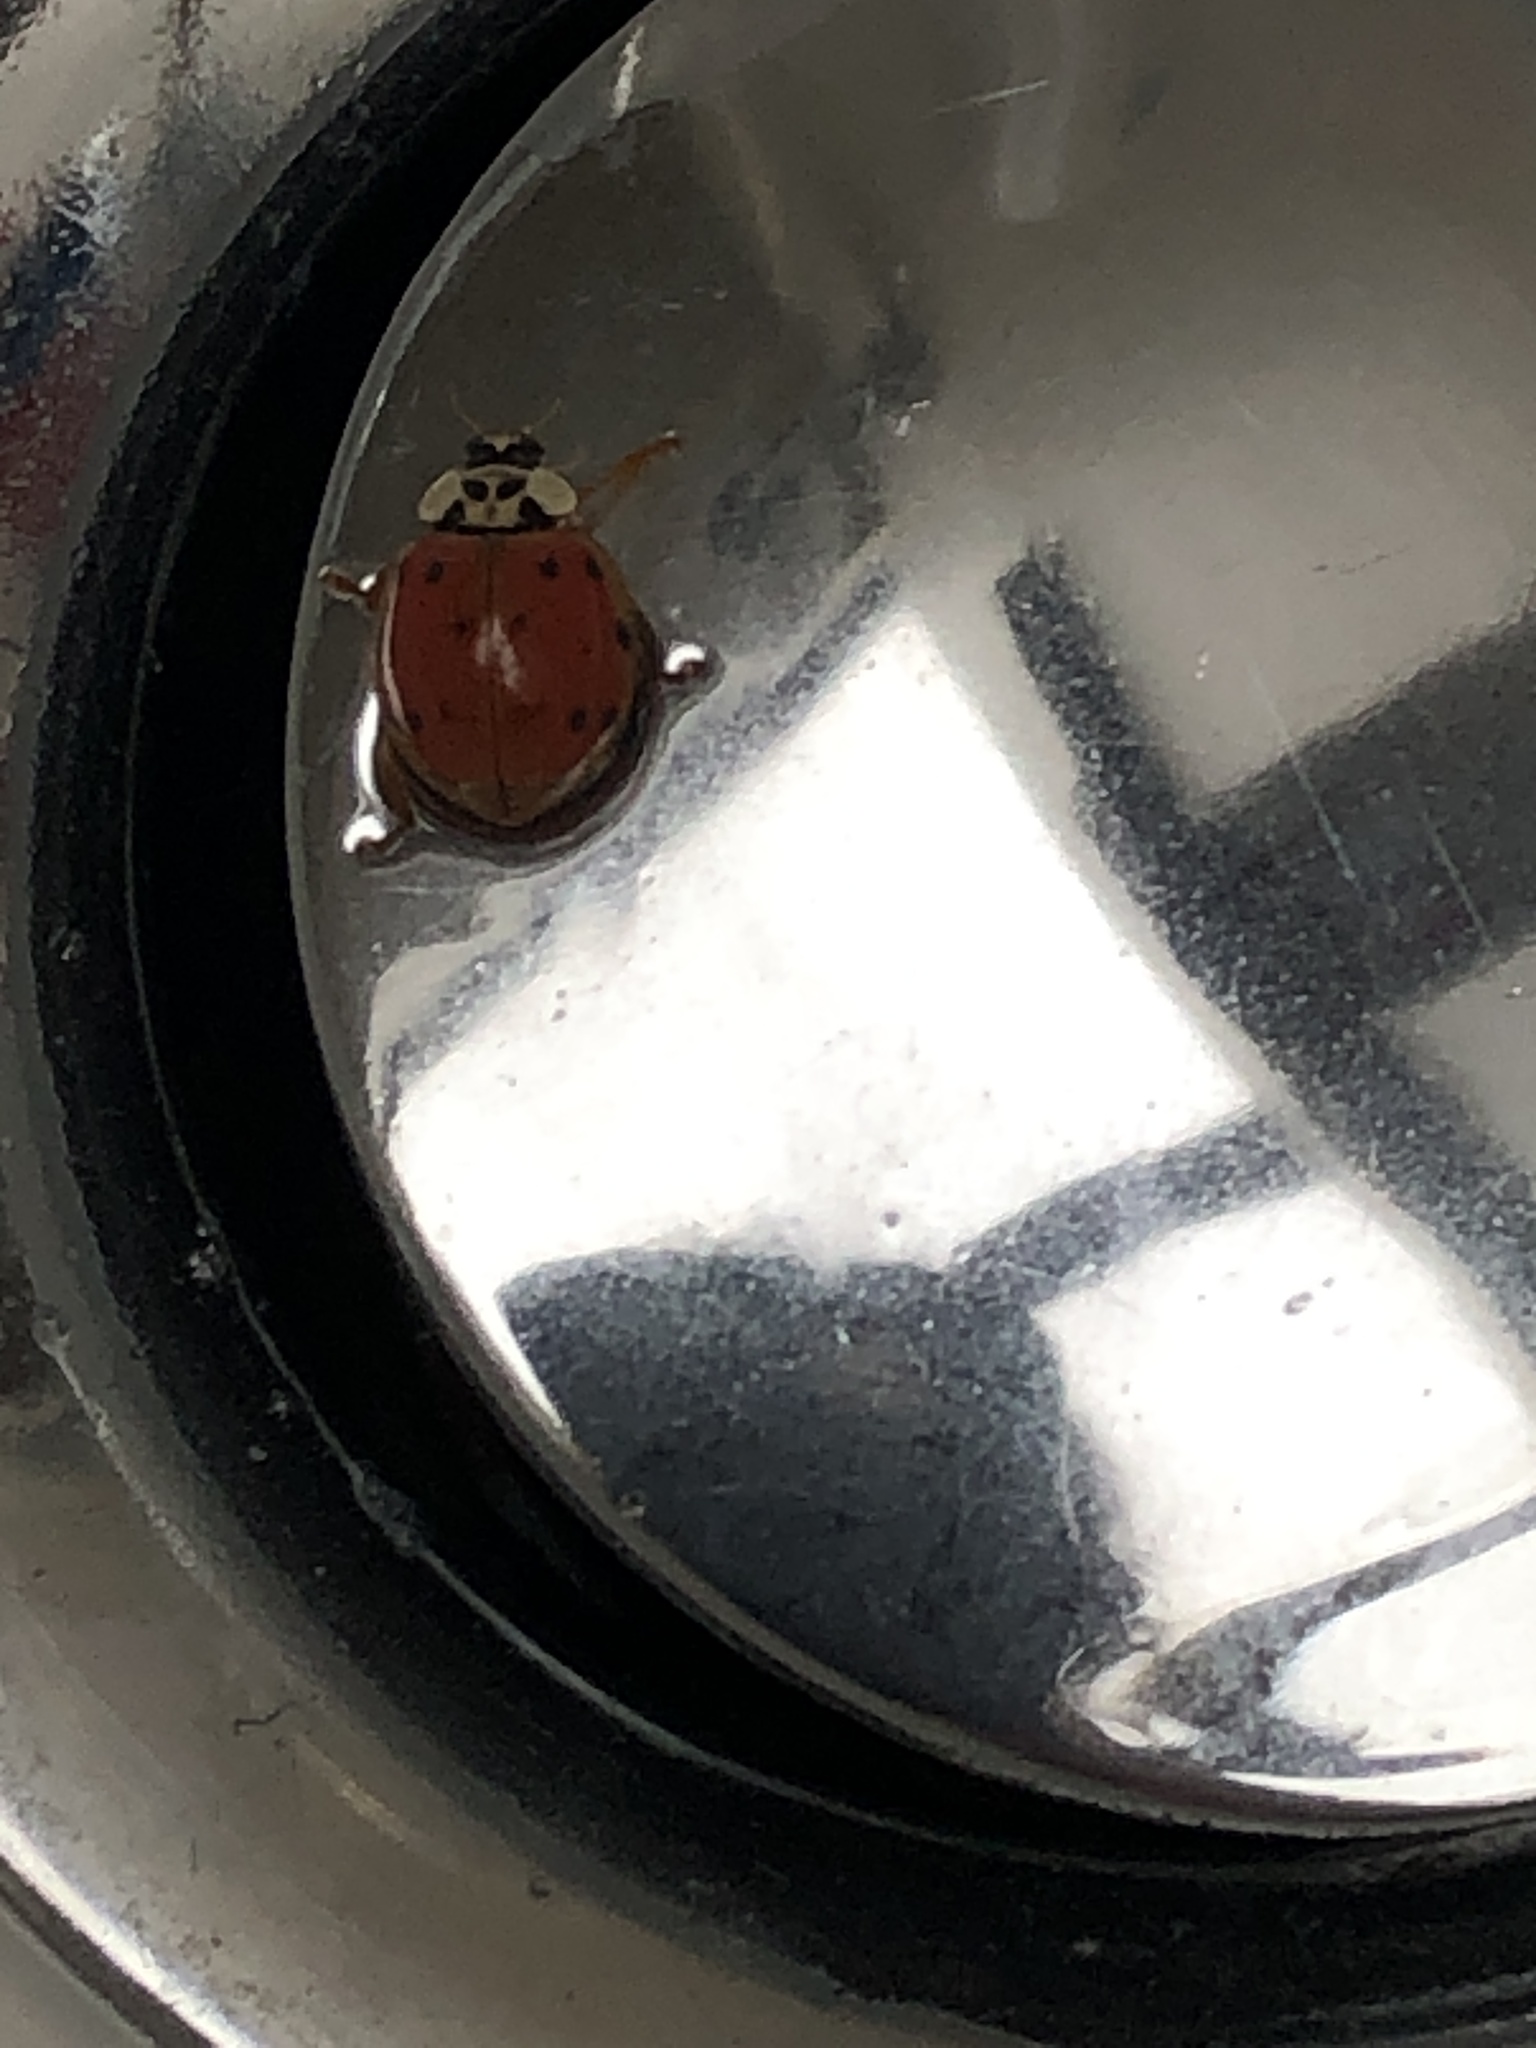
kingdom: Animalia
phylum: Arthropoda
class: Insecta
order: Coleoptera
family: Coccinellidae
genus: Harmonia
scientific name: Harmonia axyridis
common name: Harlequin ladybird
